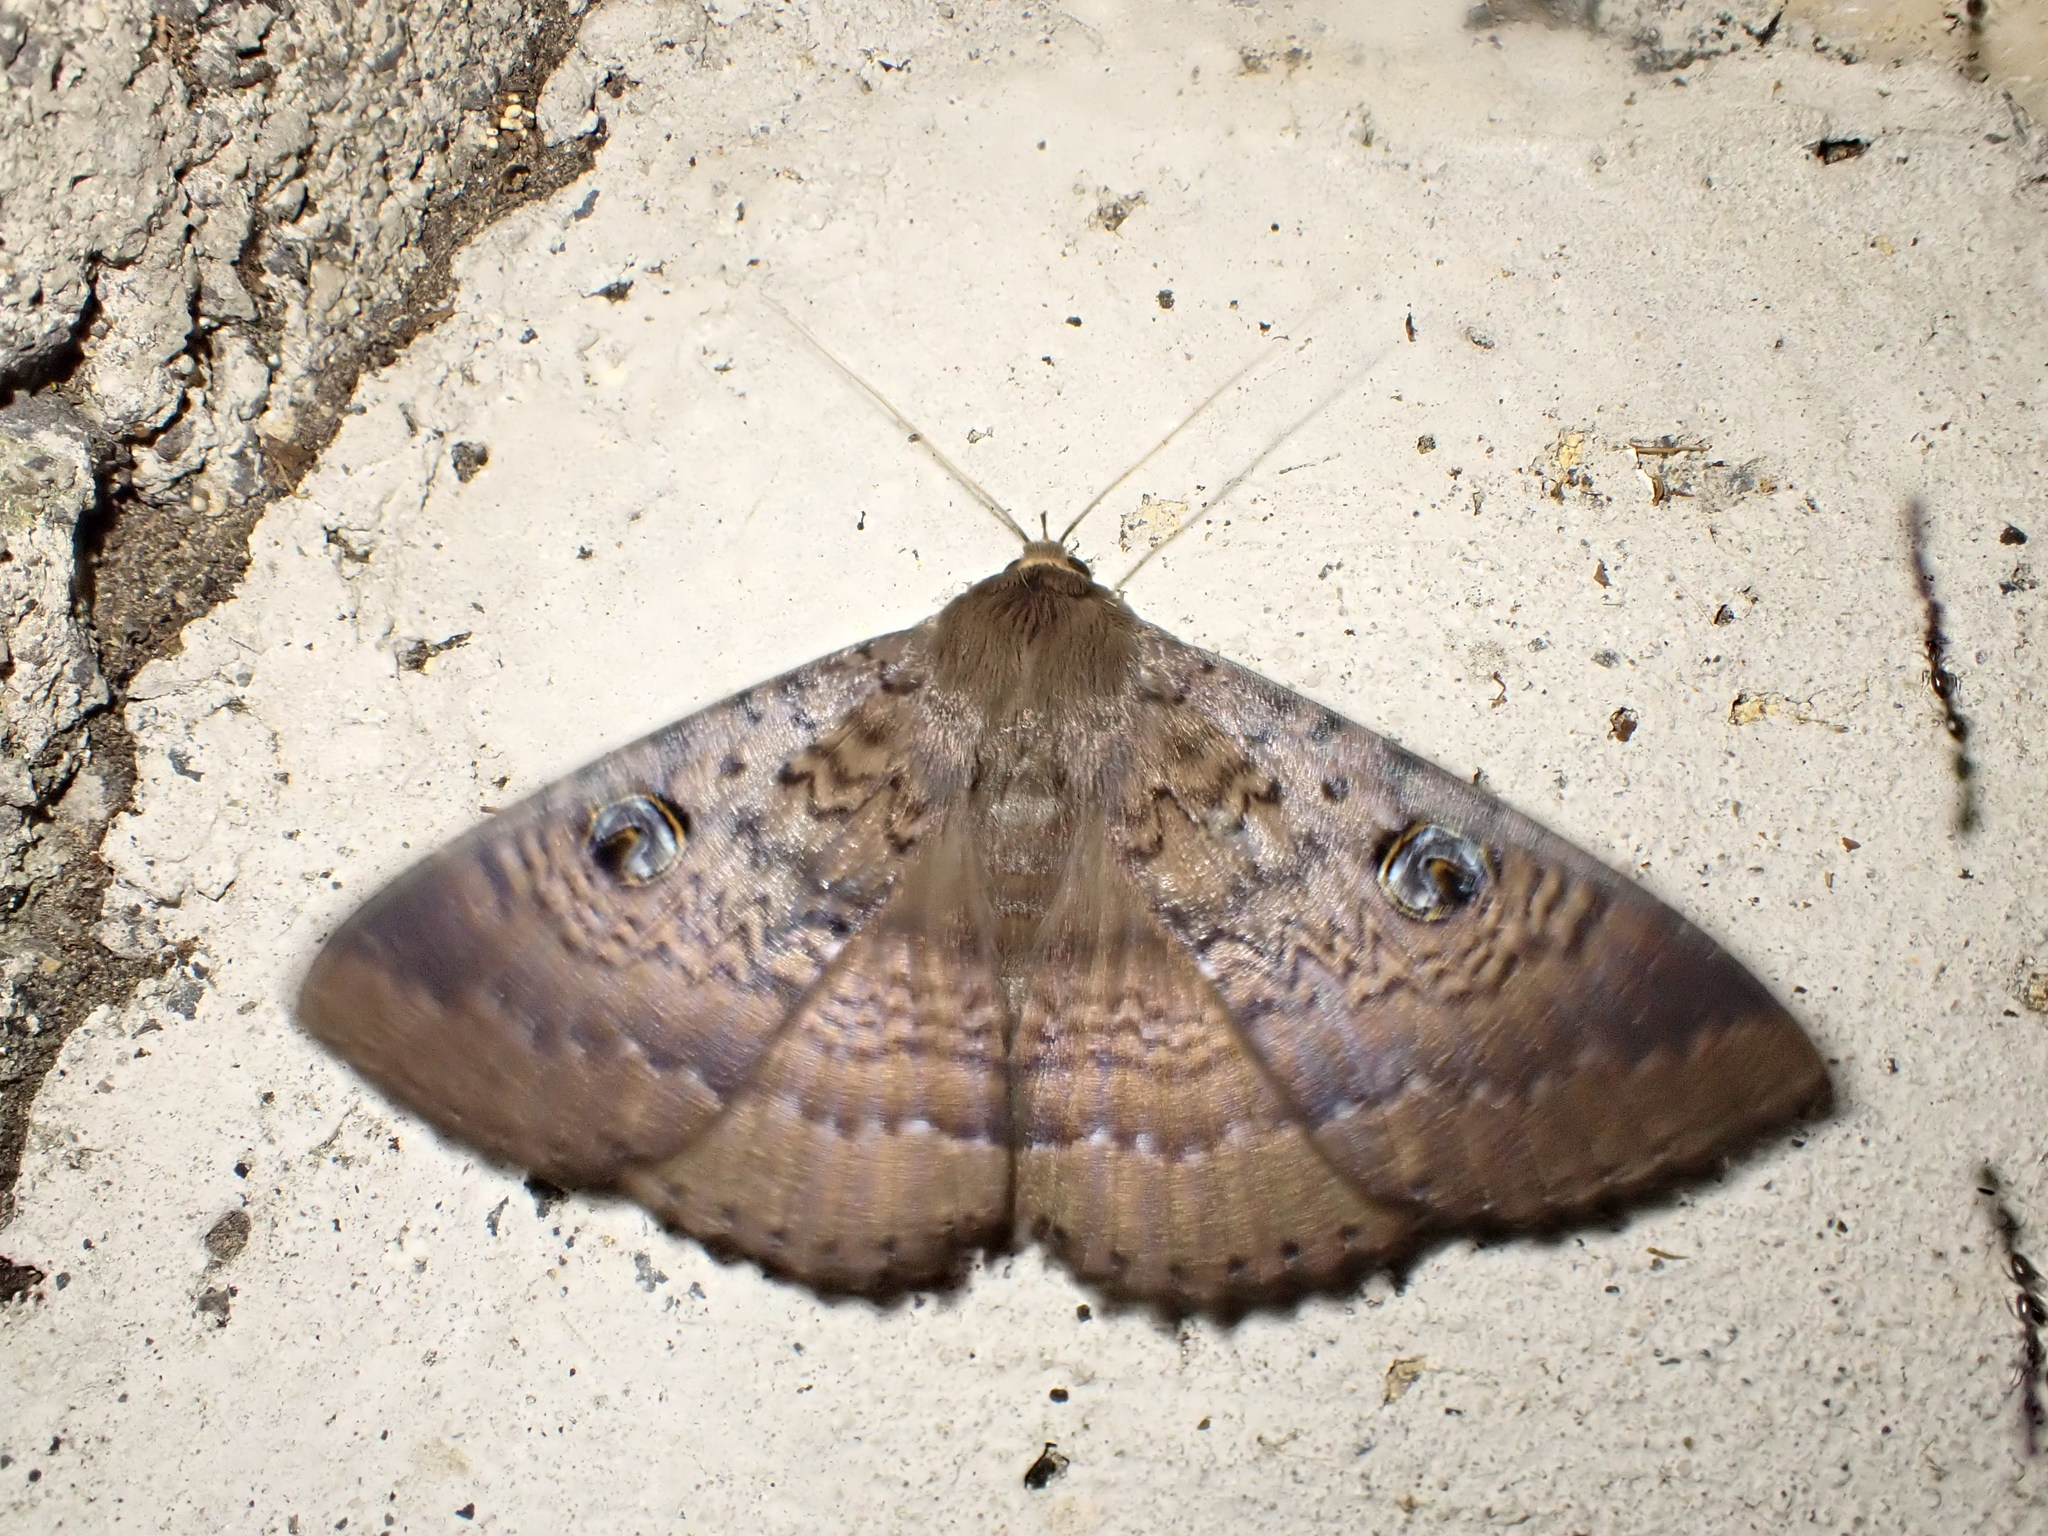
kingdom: Animalia
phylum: Arthropoda
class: Insecta
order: Lepidoptera
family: Erebidae
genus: Dasypodia
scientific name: Dasypodia cymatodes
